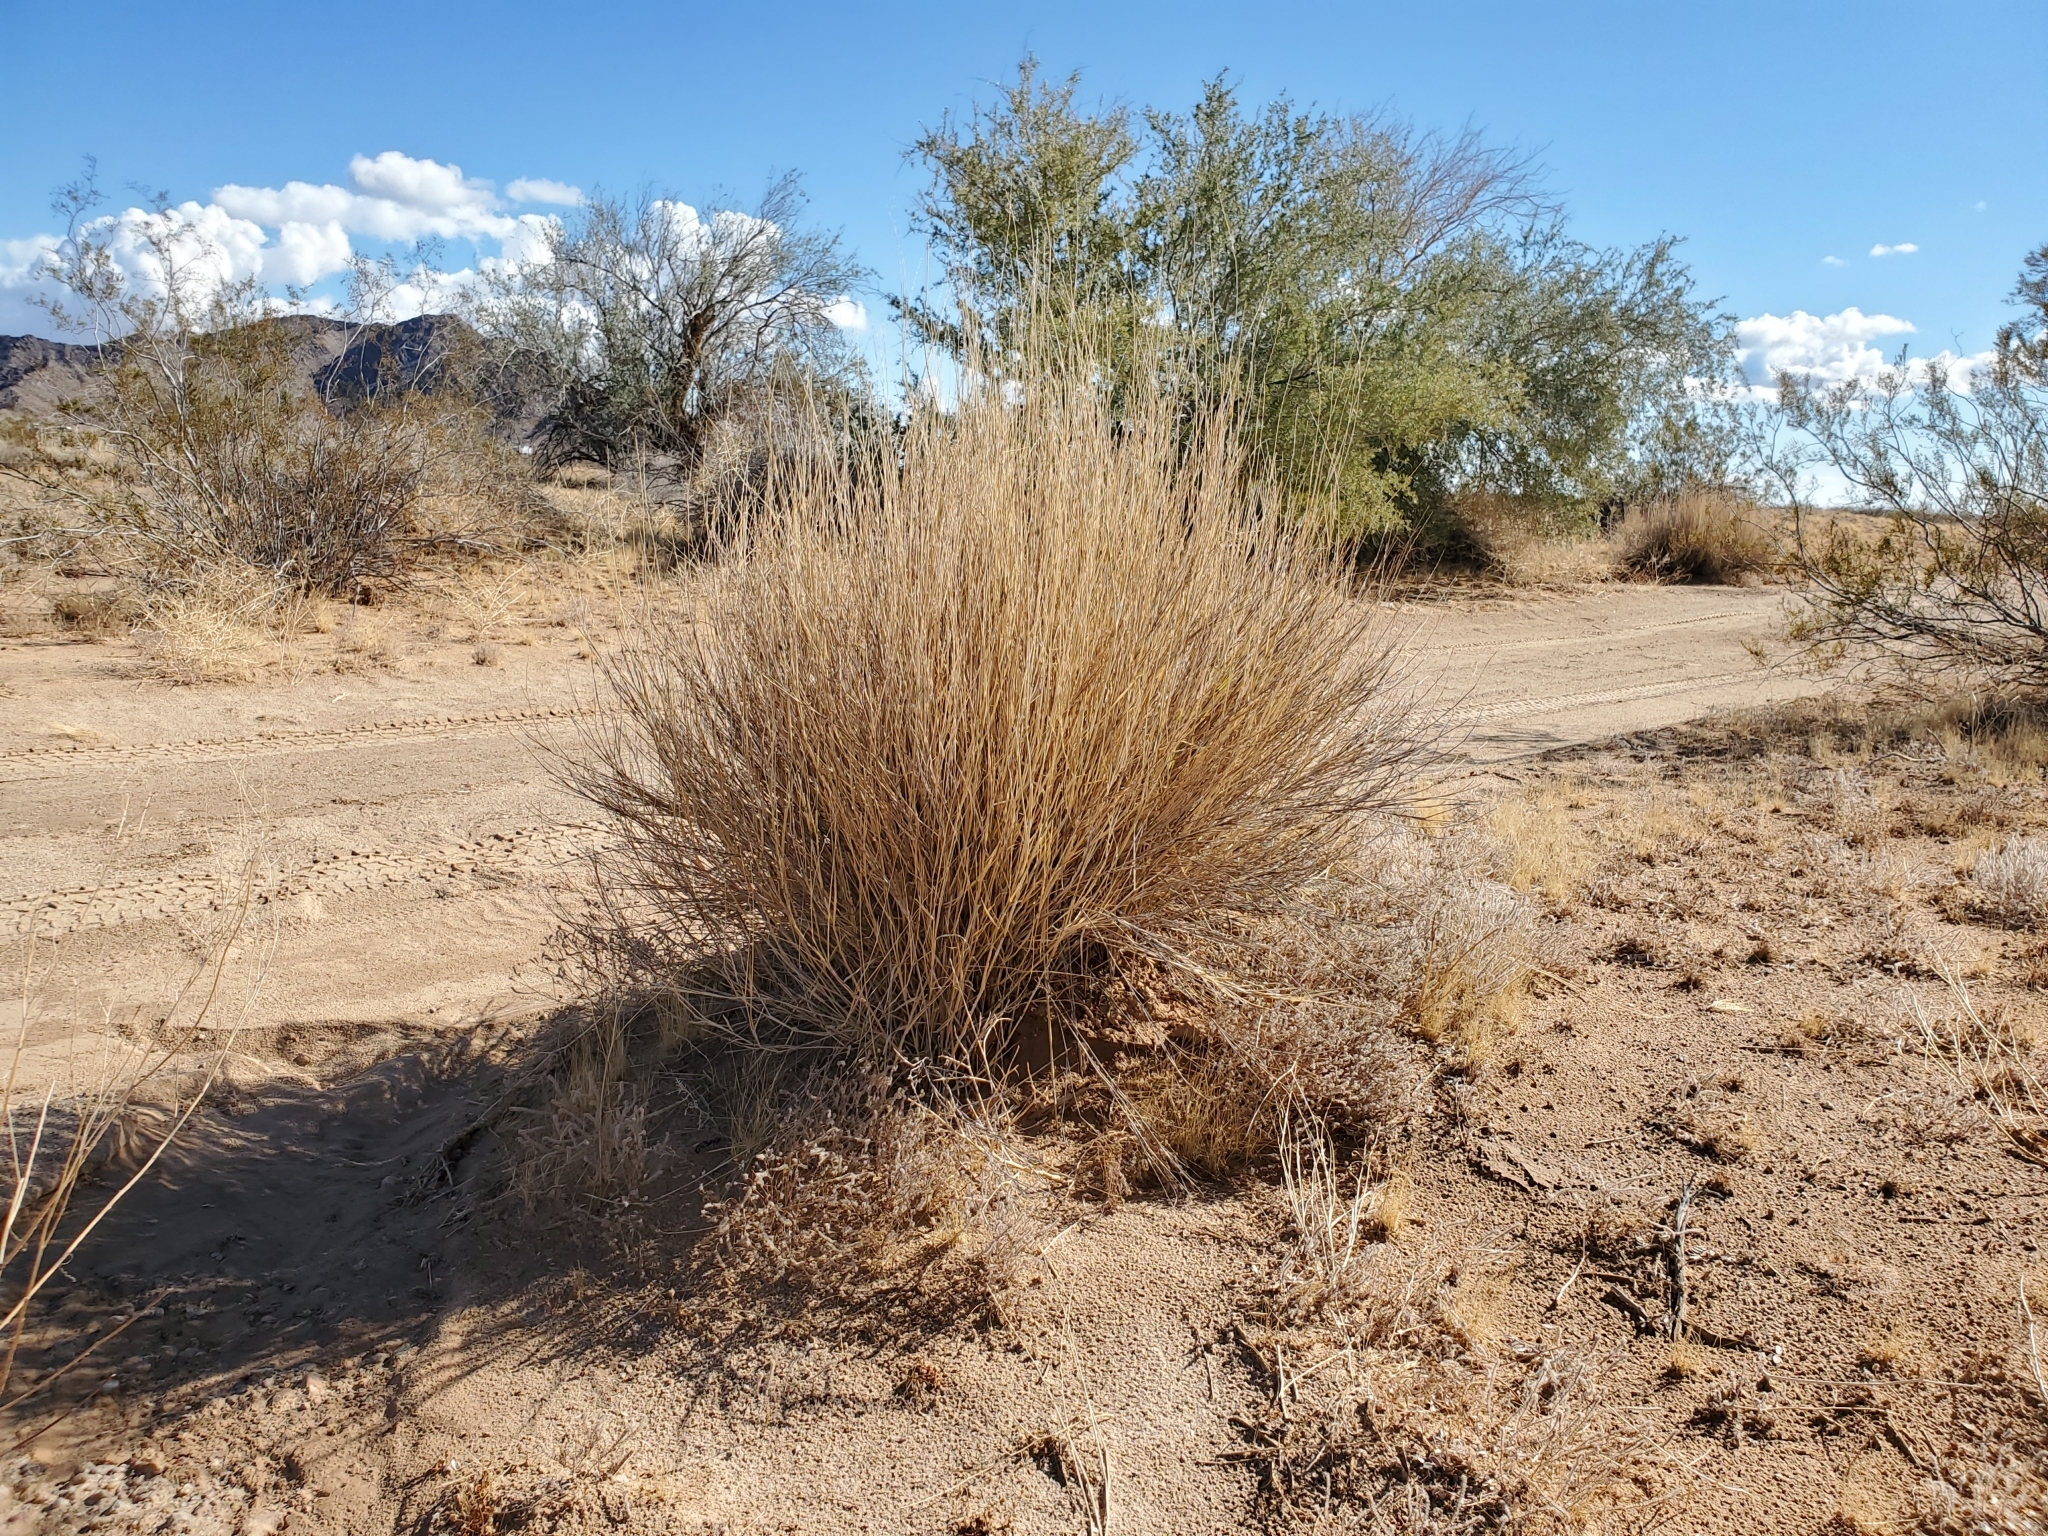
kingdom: Plantae
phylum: Tracheophyta
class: Liliopsida
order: Poales
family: Poaceae
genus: Hilaria
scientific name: Hilaria rigida
